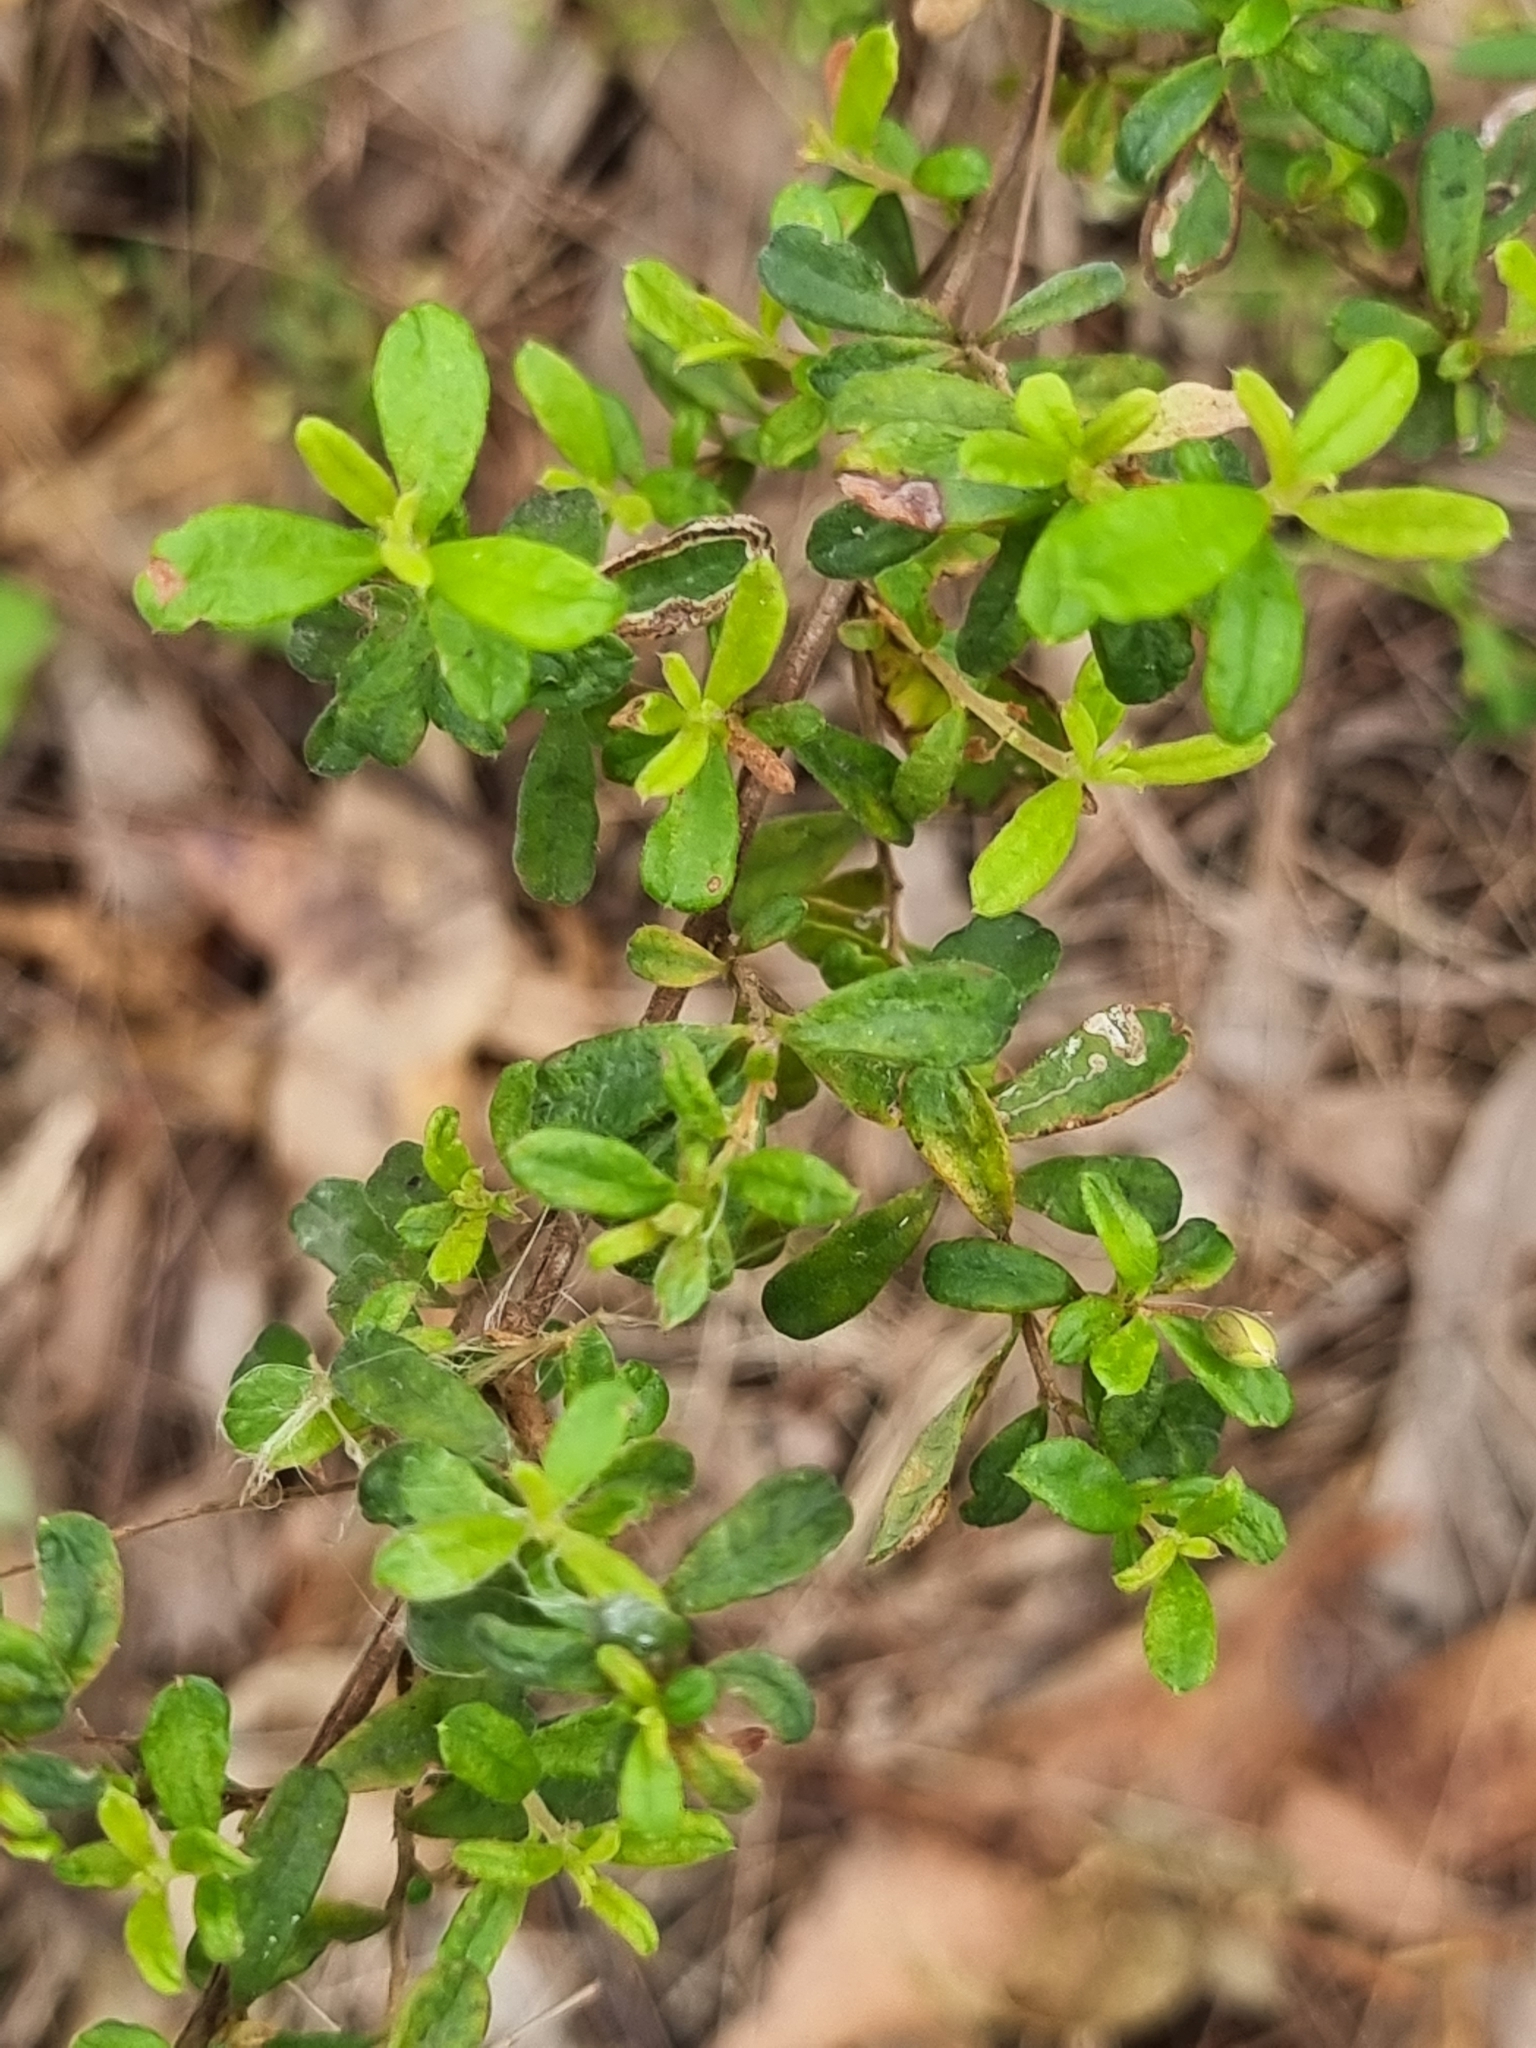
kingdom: Plantae
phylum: Tracheophyta
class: Magnoliopsida
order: Dilleniales
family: Dilleniaceae
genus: Hibbertia
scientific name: Hibbertia aspera
